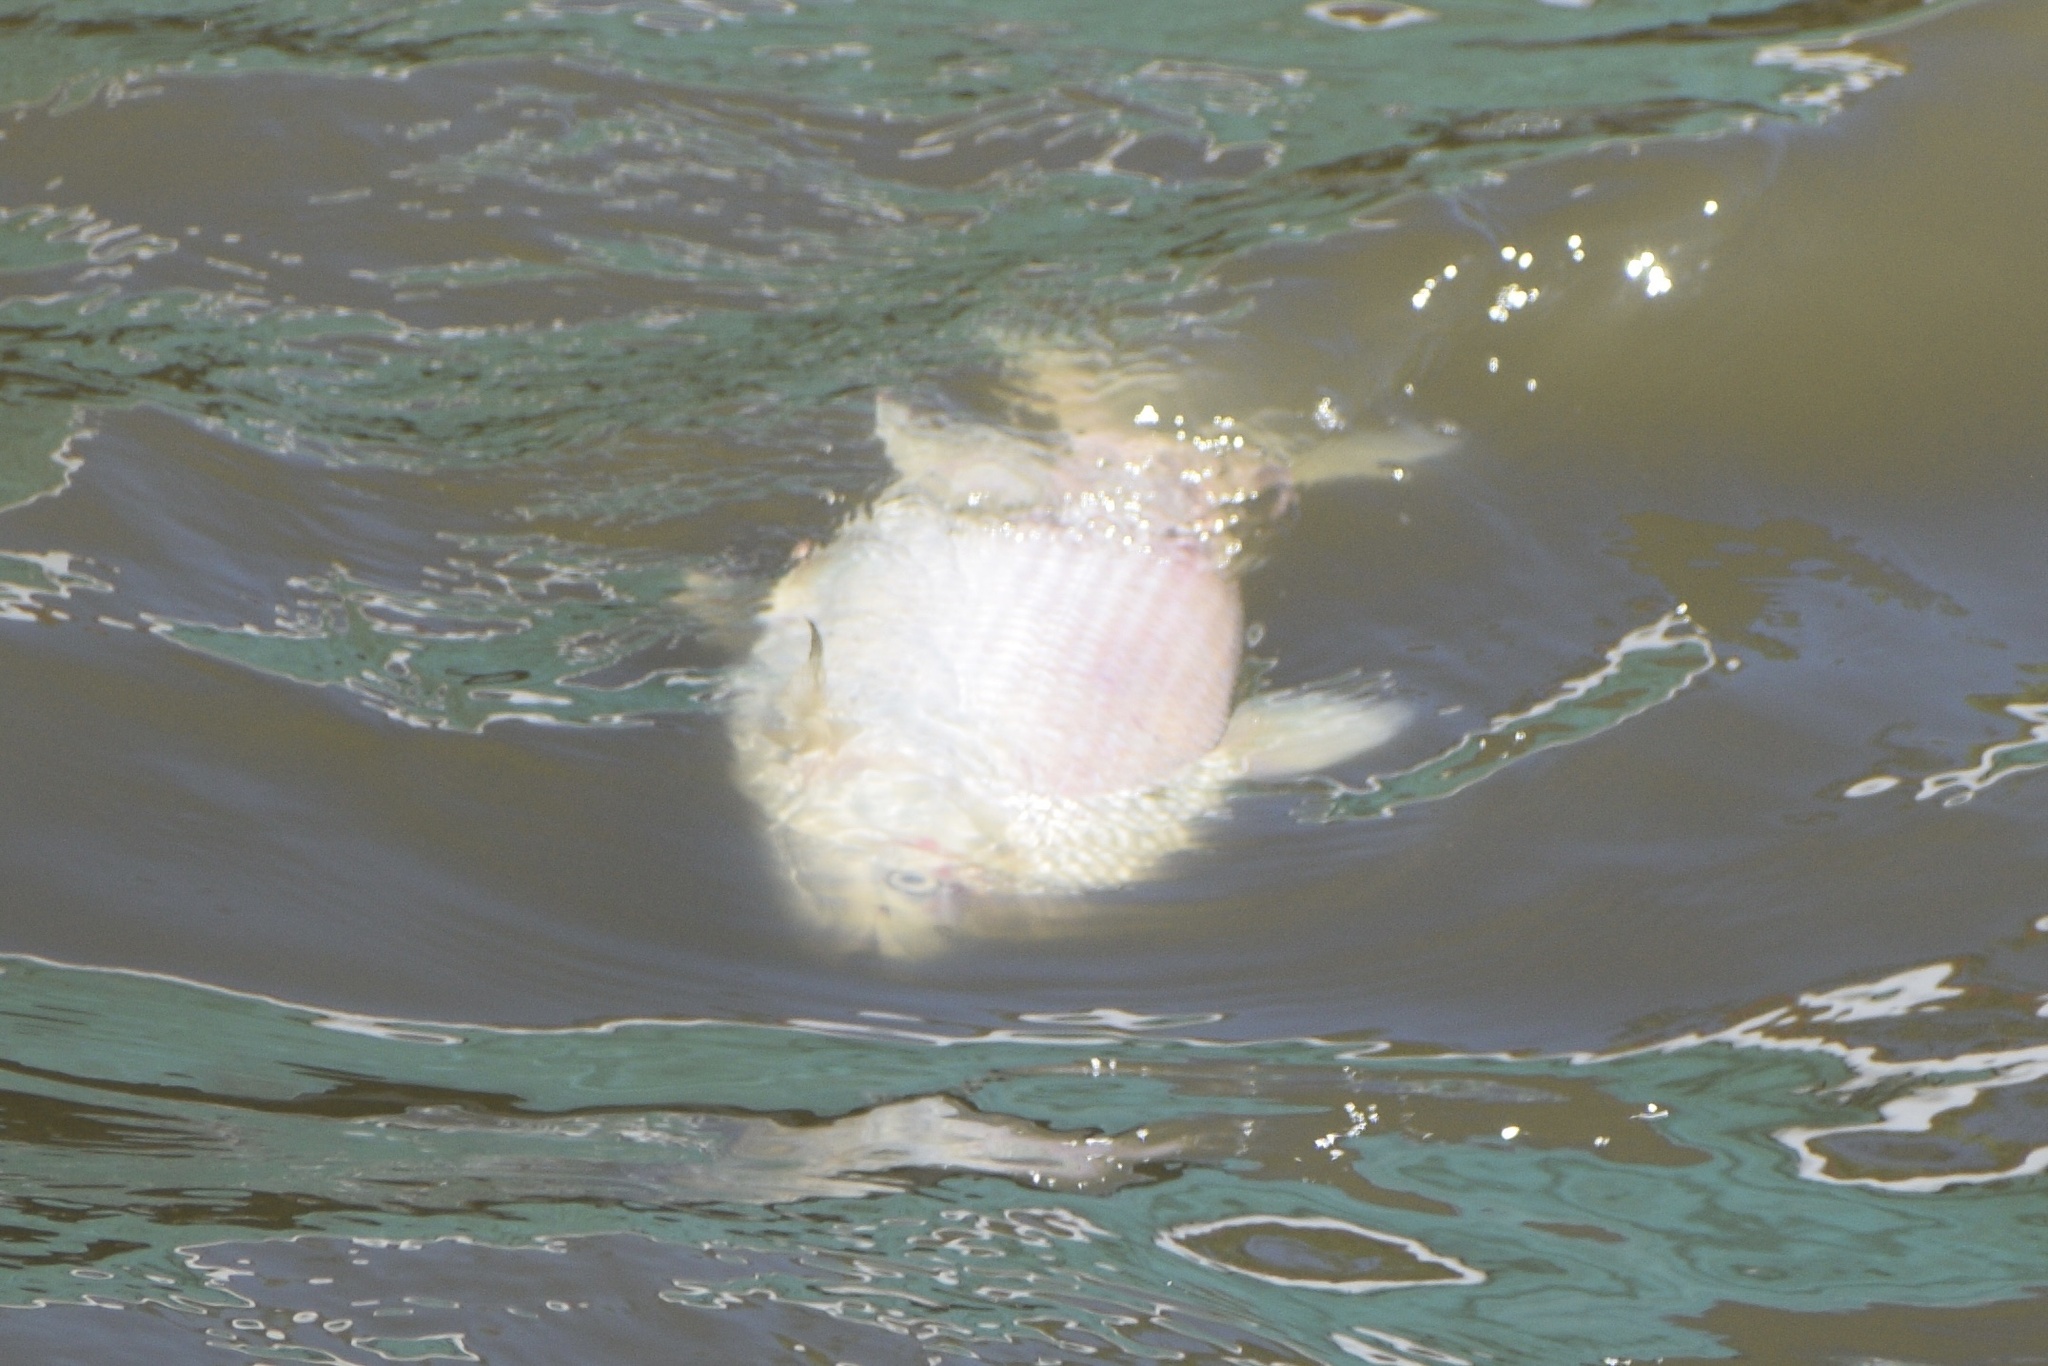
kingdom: Animalia
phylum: Chordata
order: Characiformes
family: Prochilodontidae
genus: Prochilodus
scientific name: Prochilodus lineatus
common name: Curimbata
